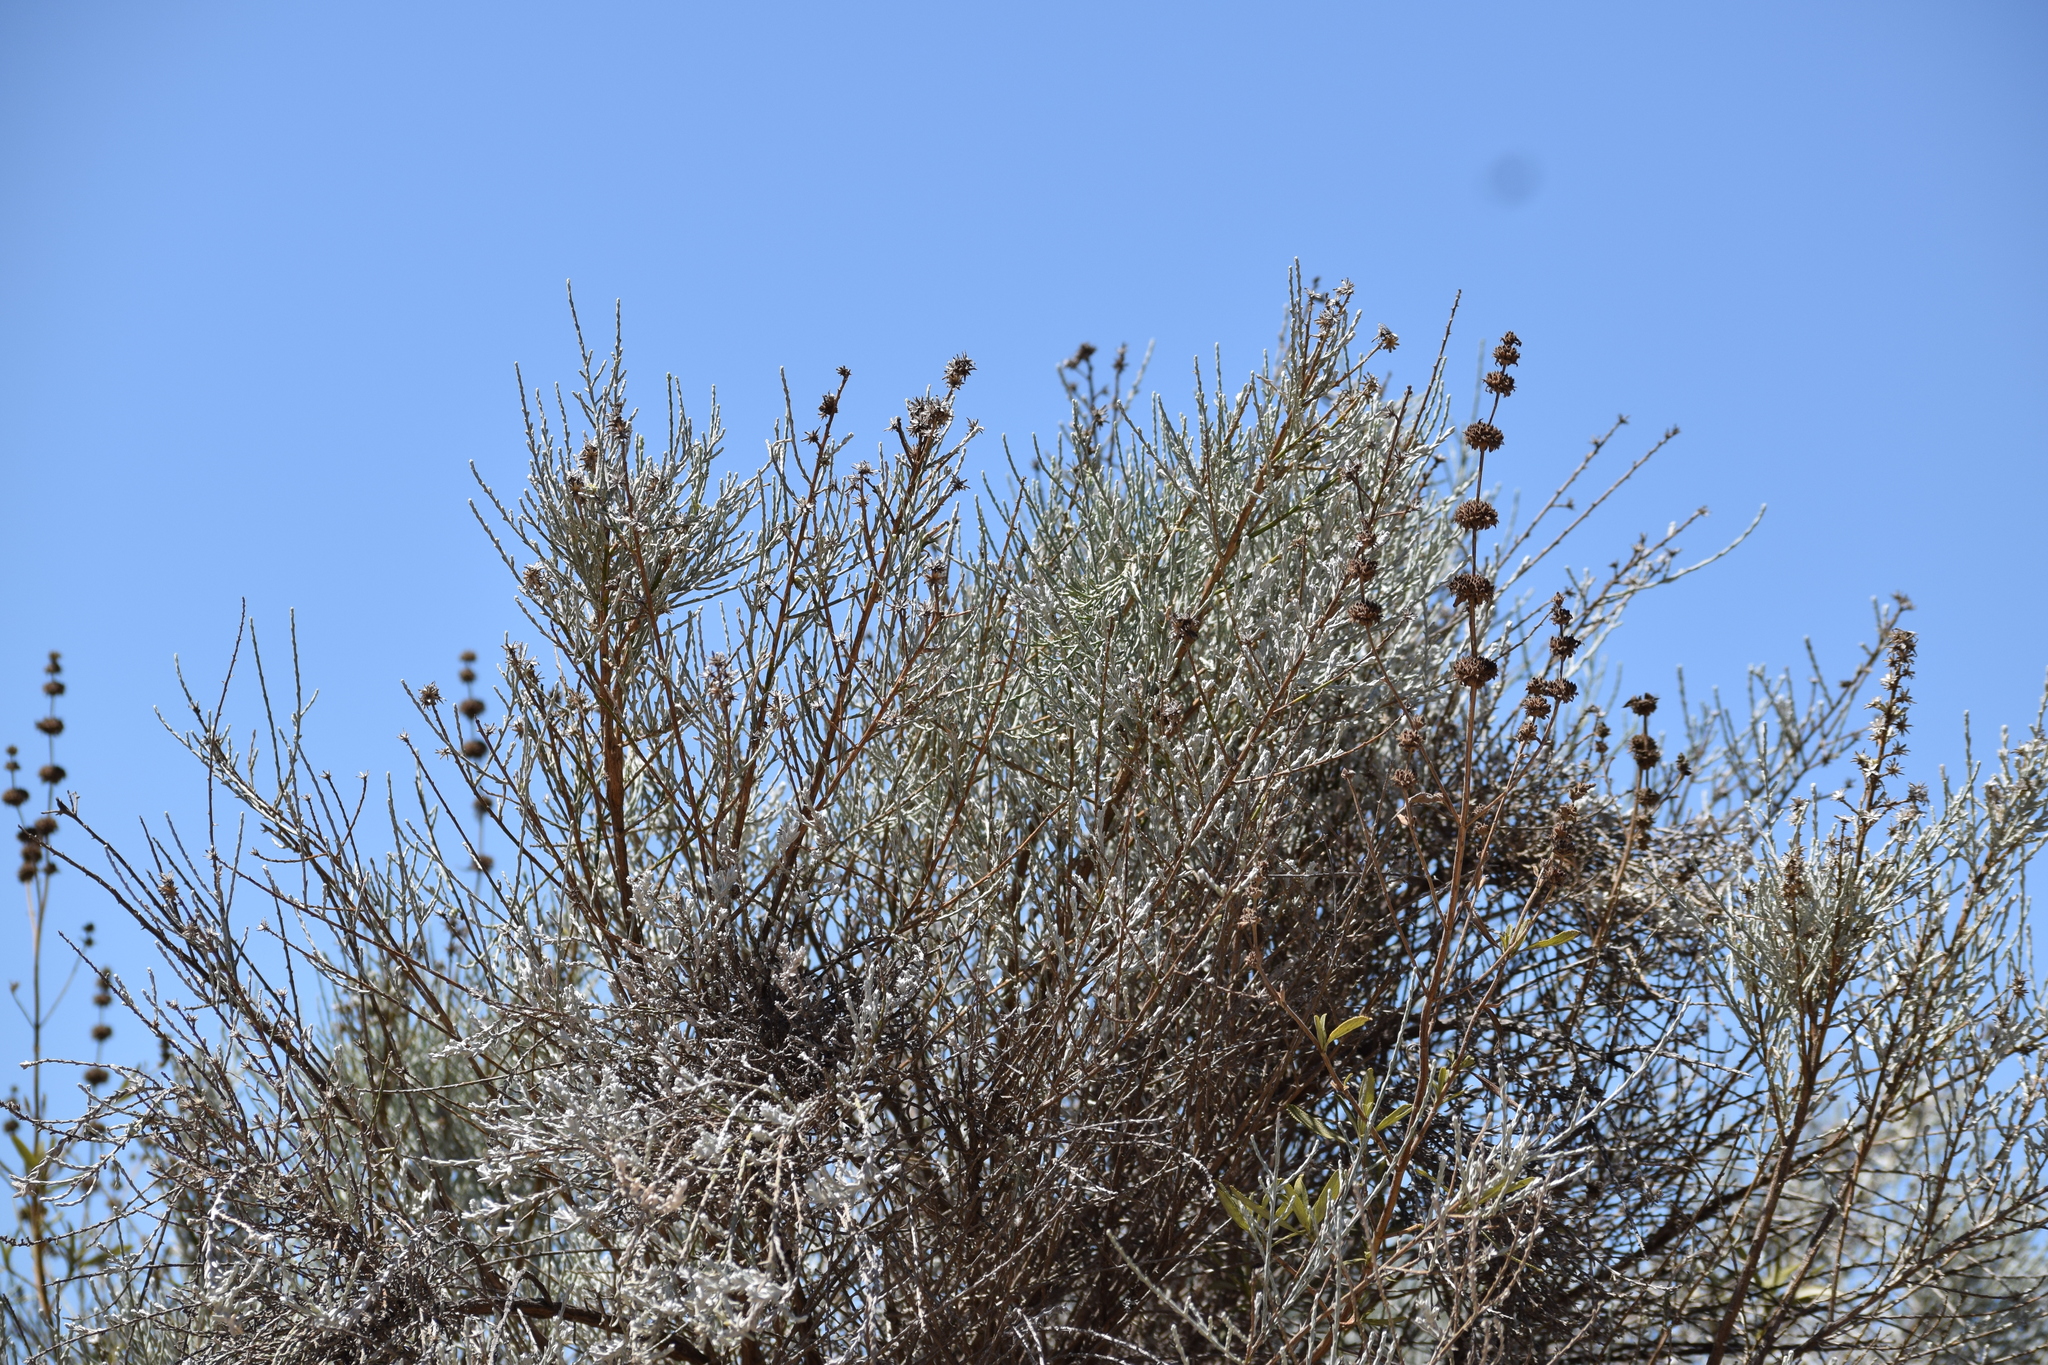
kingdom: Plantae
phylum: Tracheophyta
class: Magnoliopsida
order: Asterales
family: Asteraceae
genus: Lepidospartum
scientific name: Lepidospartum squamatum
